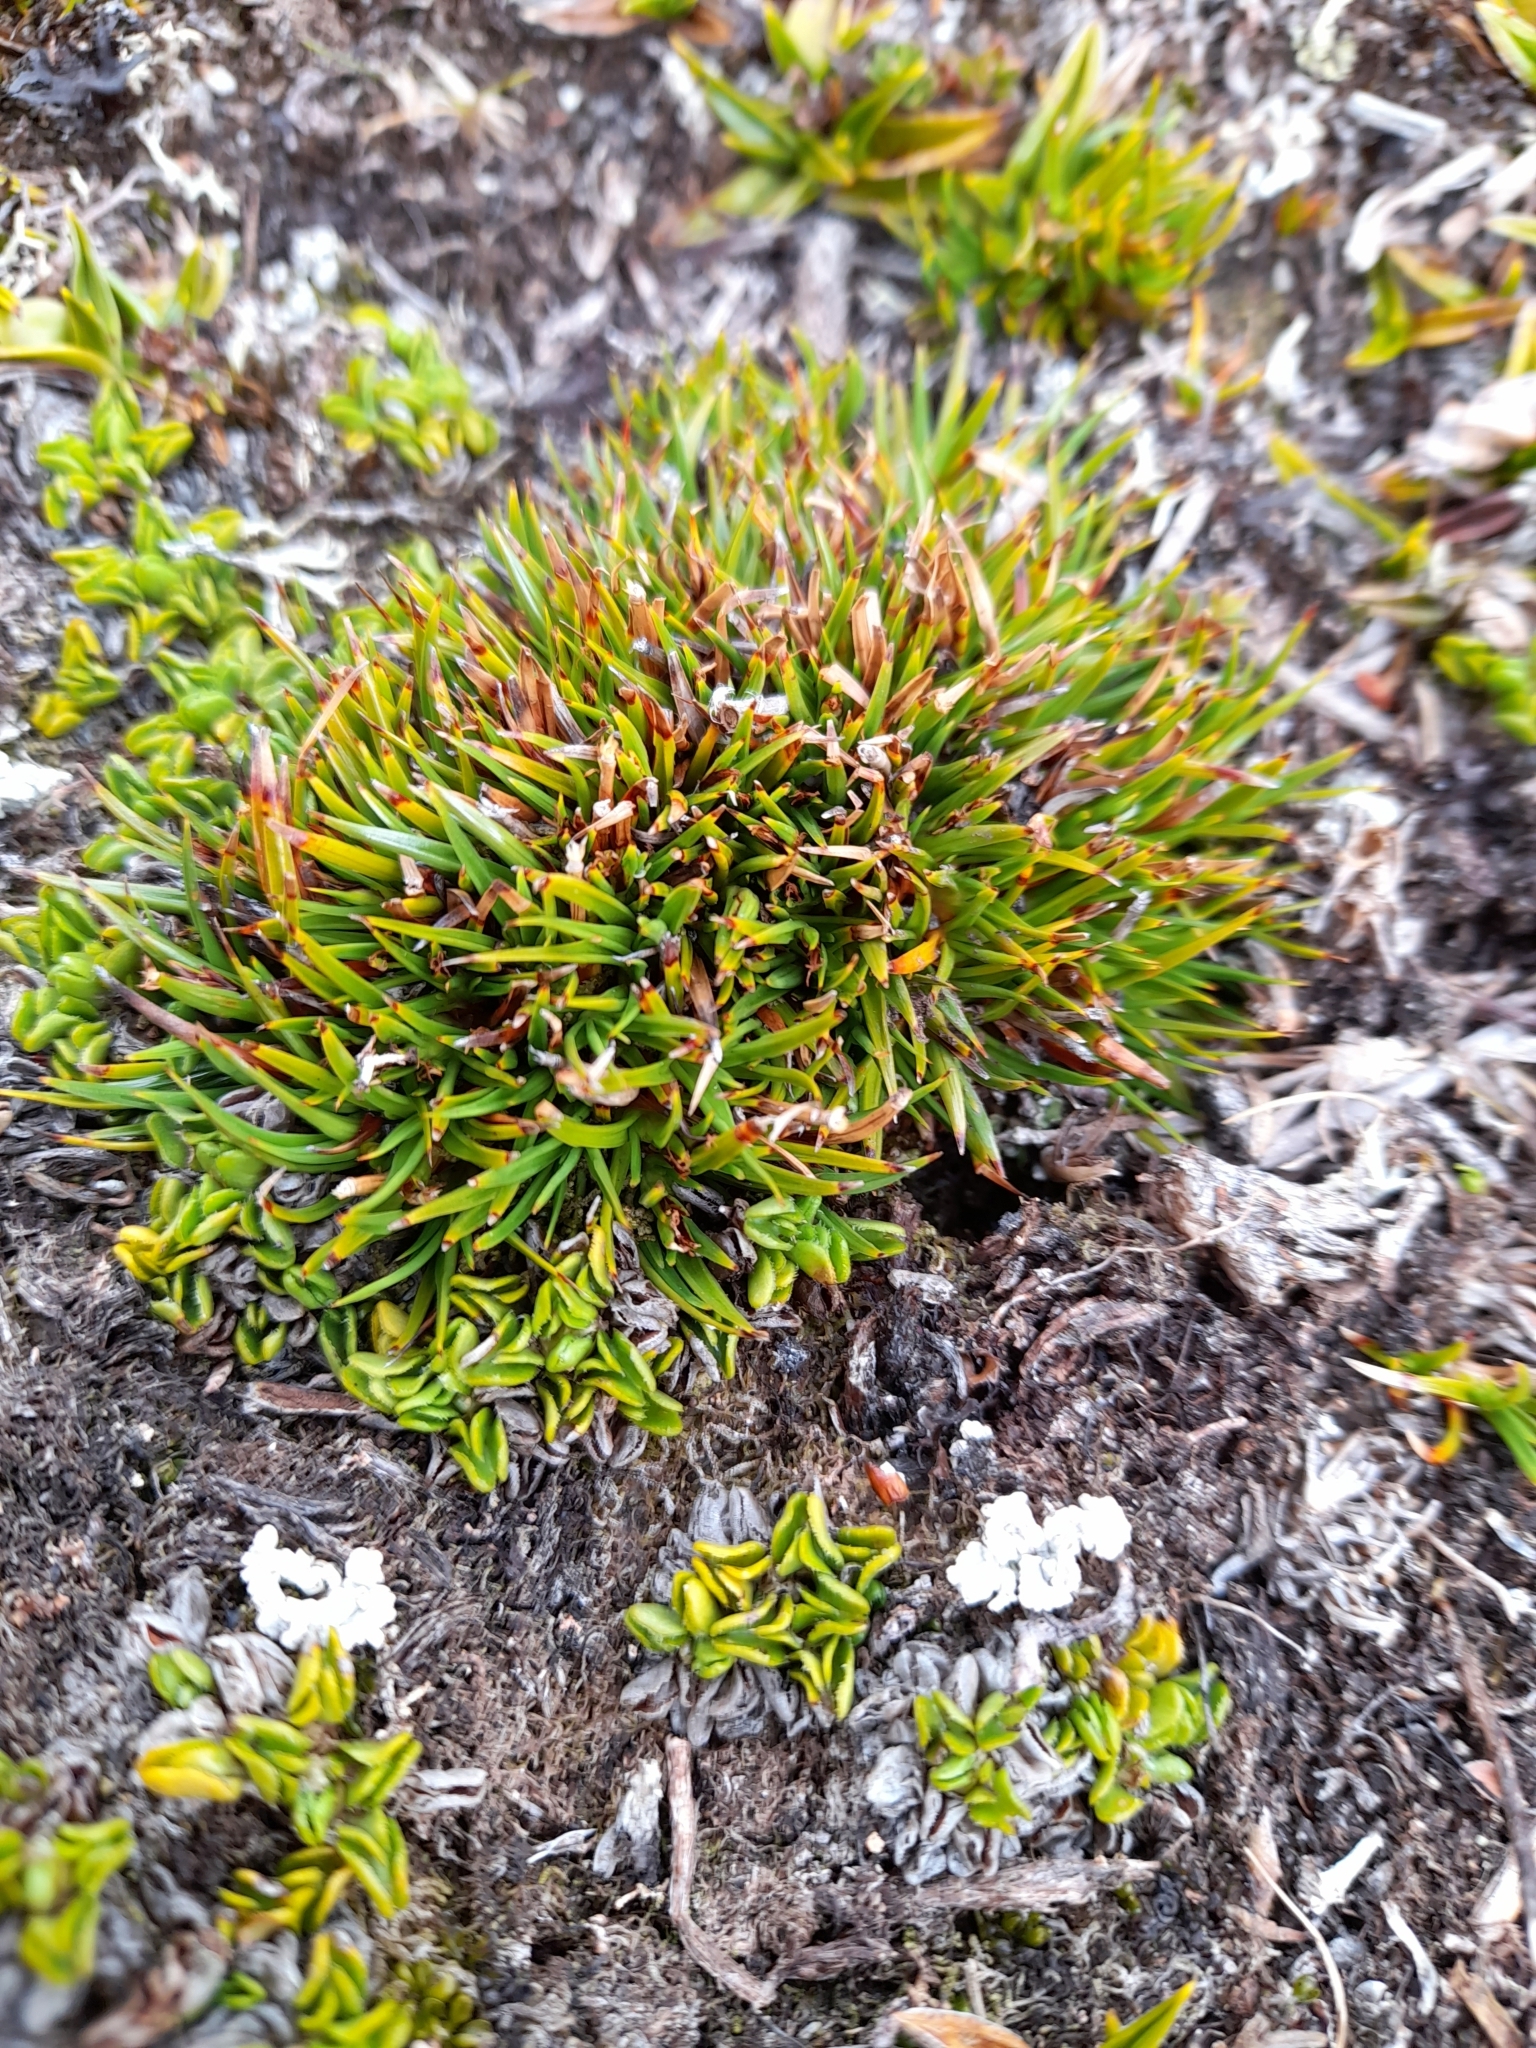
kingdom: Plantae
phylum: Tracheophyta
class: Liliopsida
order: Poales
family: Cyperaceae
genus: Oreobolus
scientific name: Oreobolus obtusangulus
